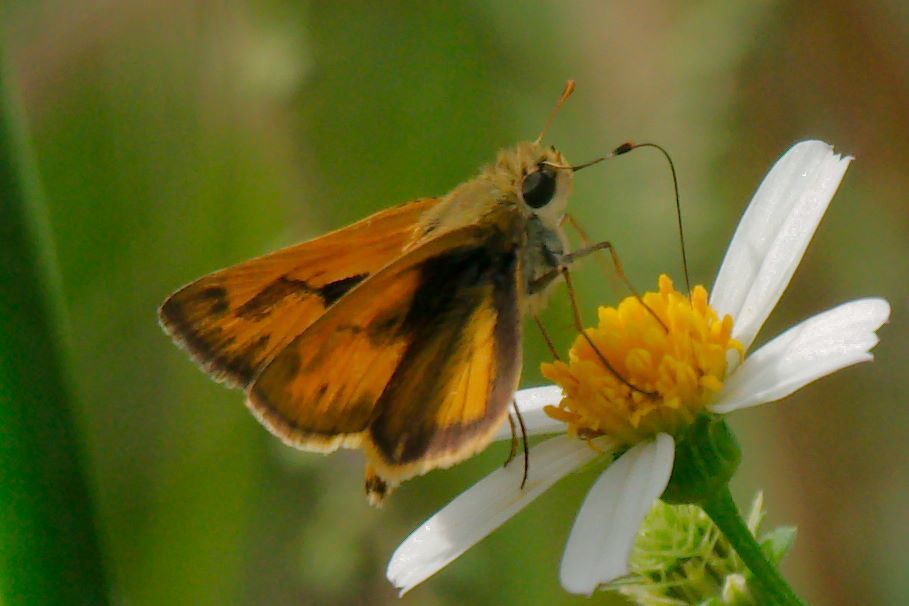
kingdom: Animalia
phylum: Arthropoda
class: Insecta
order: Lepidoptera
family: Hesperiidae
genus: Polites
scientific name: Polites vibex
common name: Whirlabout
